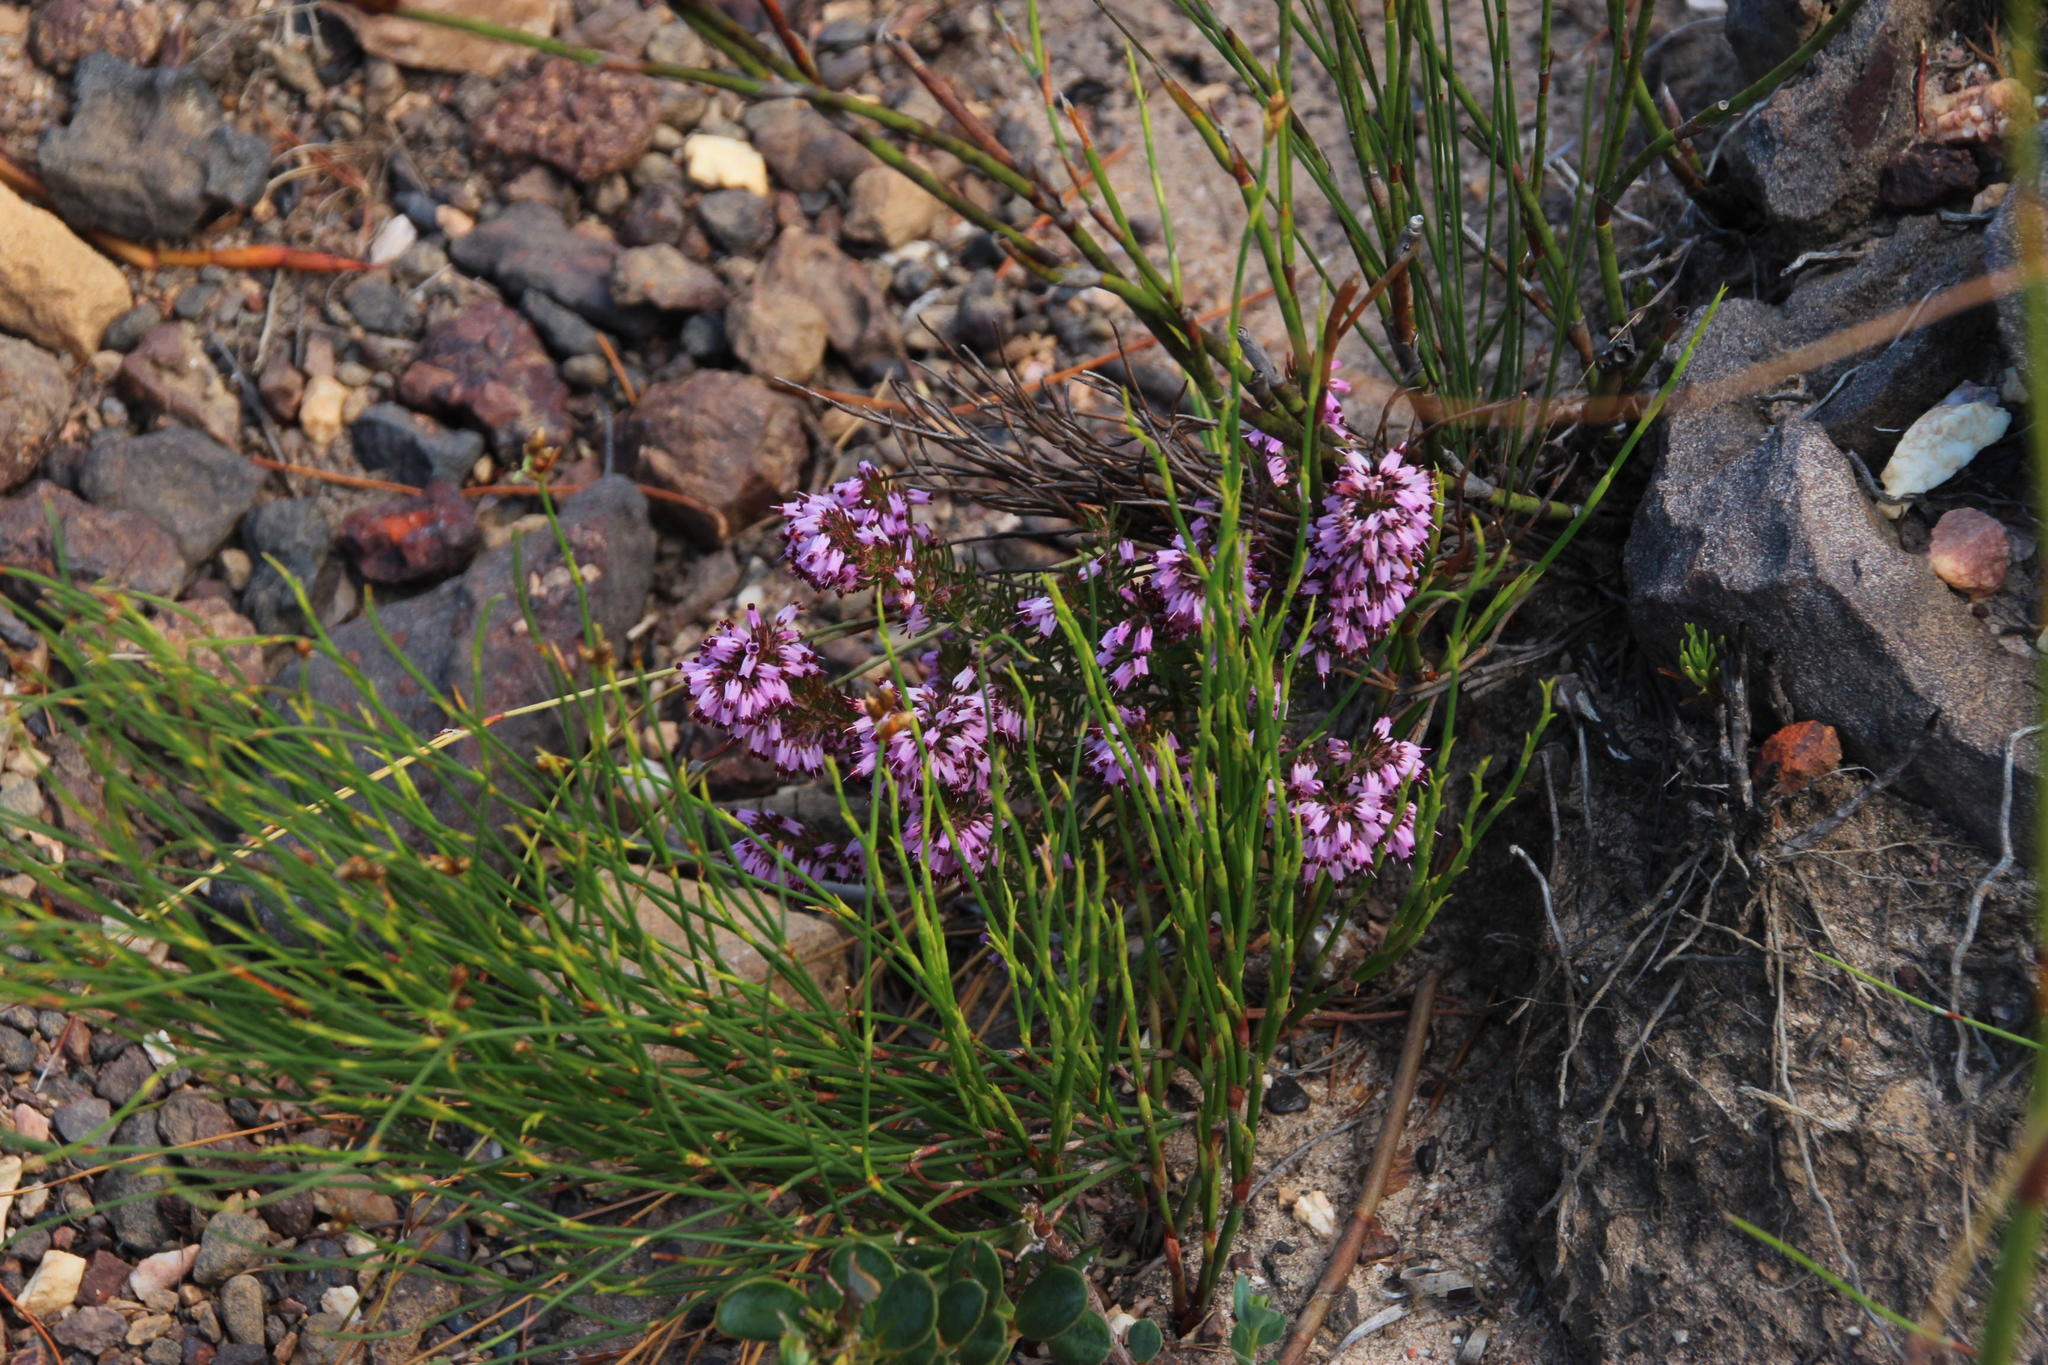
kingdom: Plantae
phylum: Tracheophyta
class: Magnoliopsida
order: Ericales
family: Ericaceae
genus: Erica
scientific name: Erica nudiflora
